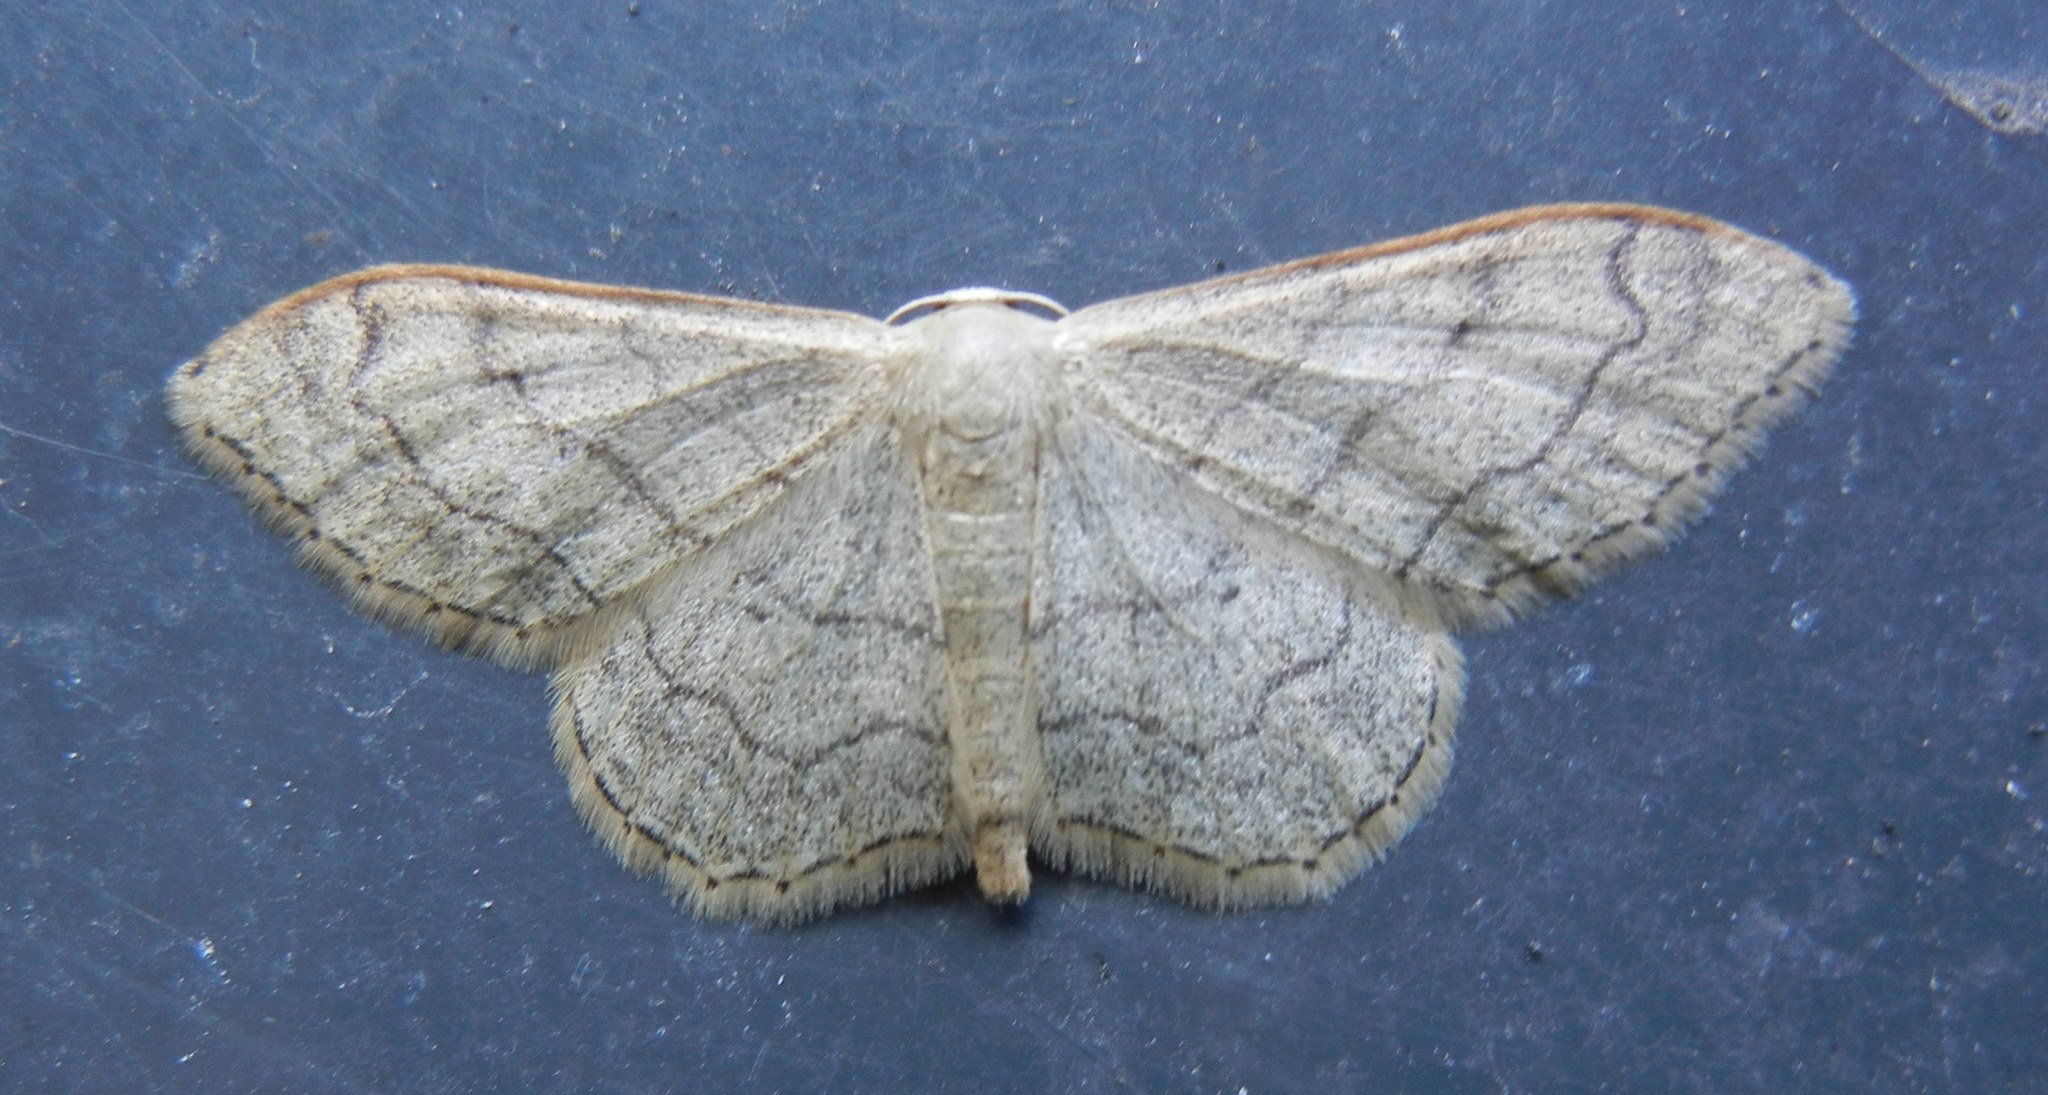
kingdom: Animalia
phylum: Arthropoda
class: Insecta
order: Lepidoptera
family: Geometridae
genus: Idaea
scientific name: Idaea aversata
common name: Riband wave
